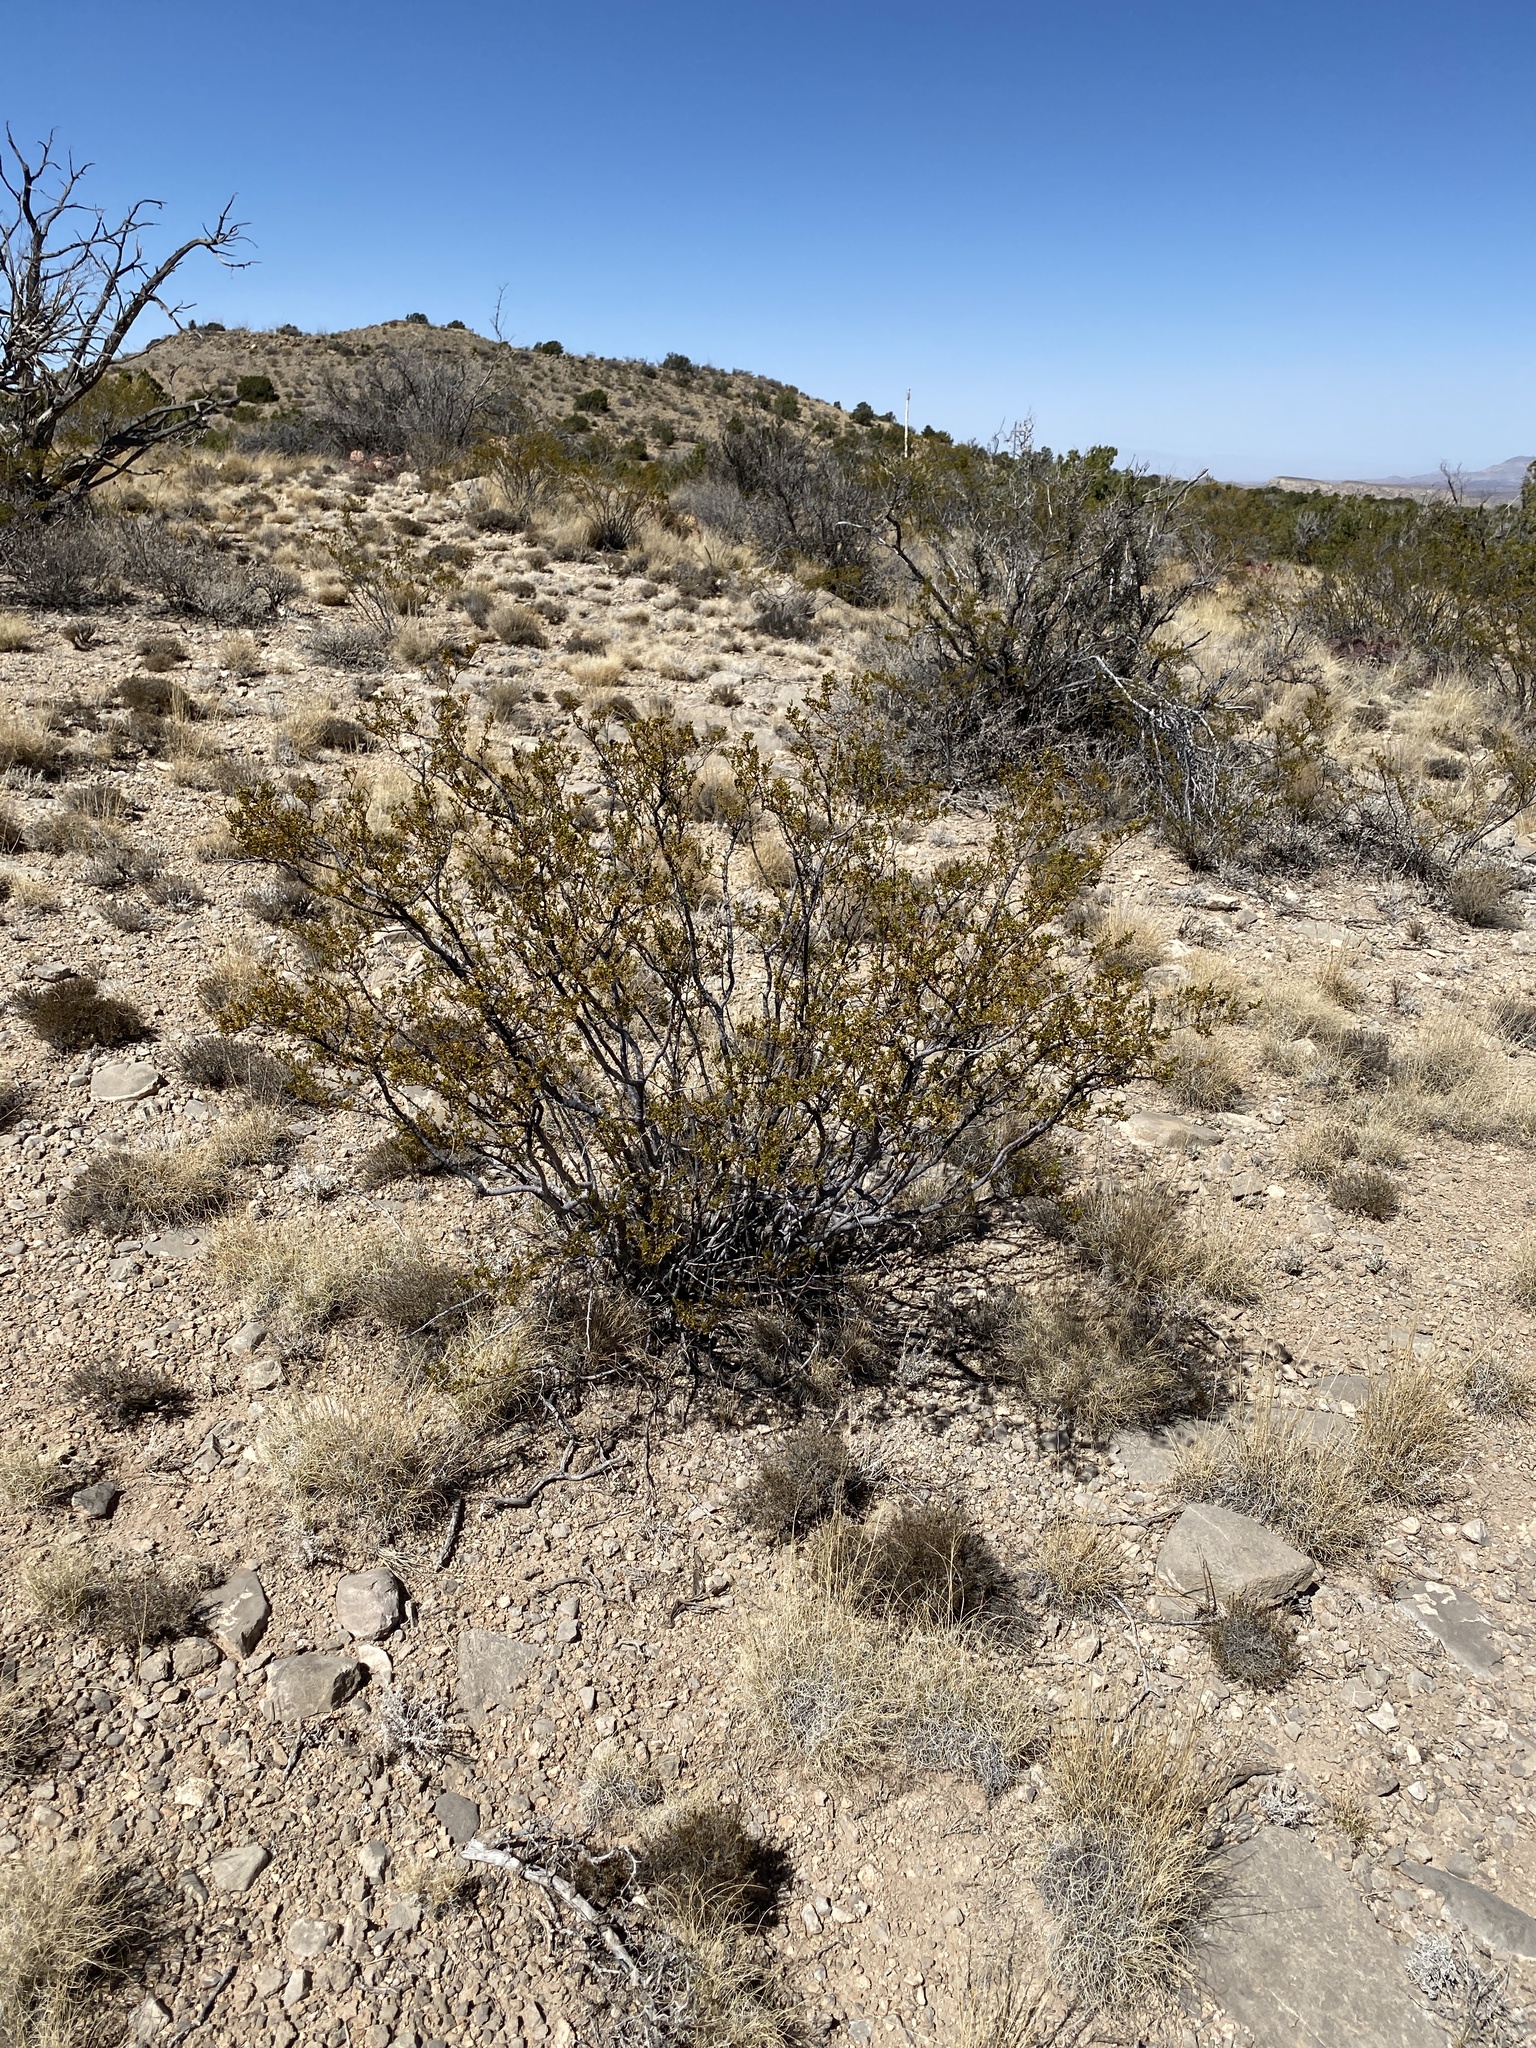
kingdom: Plantae
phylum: Tracheophyta
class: Magnoliopsida
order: Zygophyllales
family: Zygophyllaceae
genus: Larrea
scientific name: Larrea tridentata
